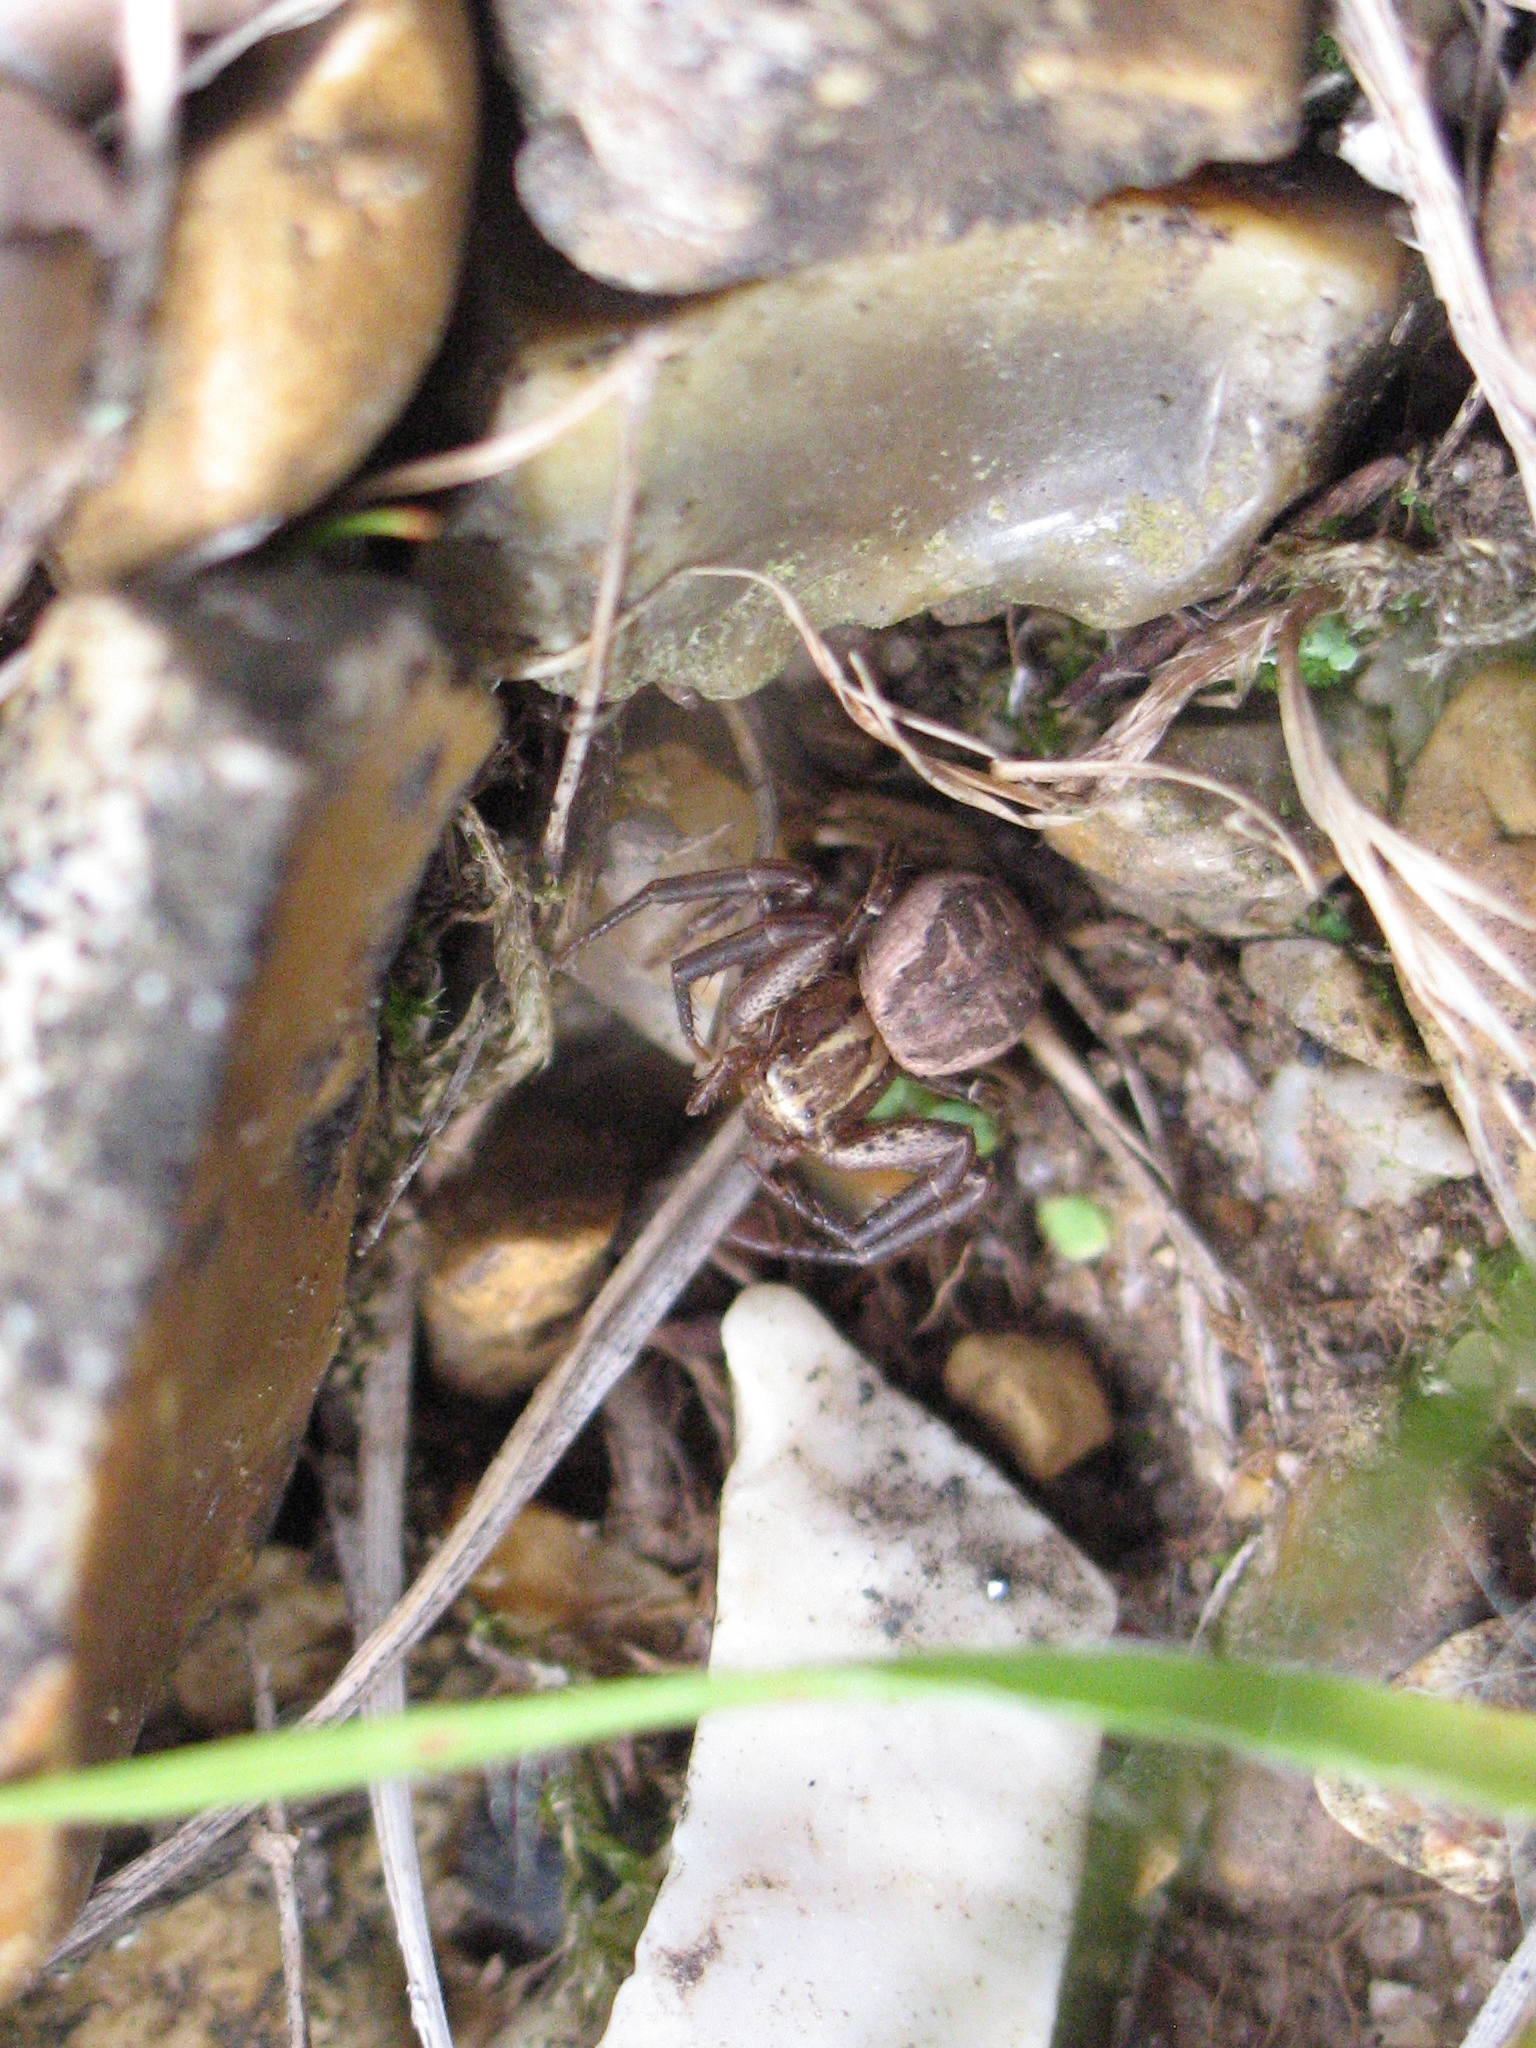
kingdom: Animalia
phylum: Arthropoda
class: Arachnida
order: Araneae
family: Thomisidae
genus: Xysticus
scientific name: Xysticus
